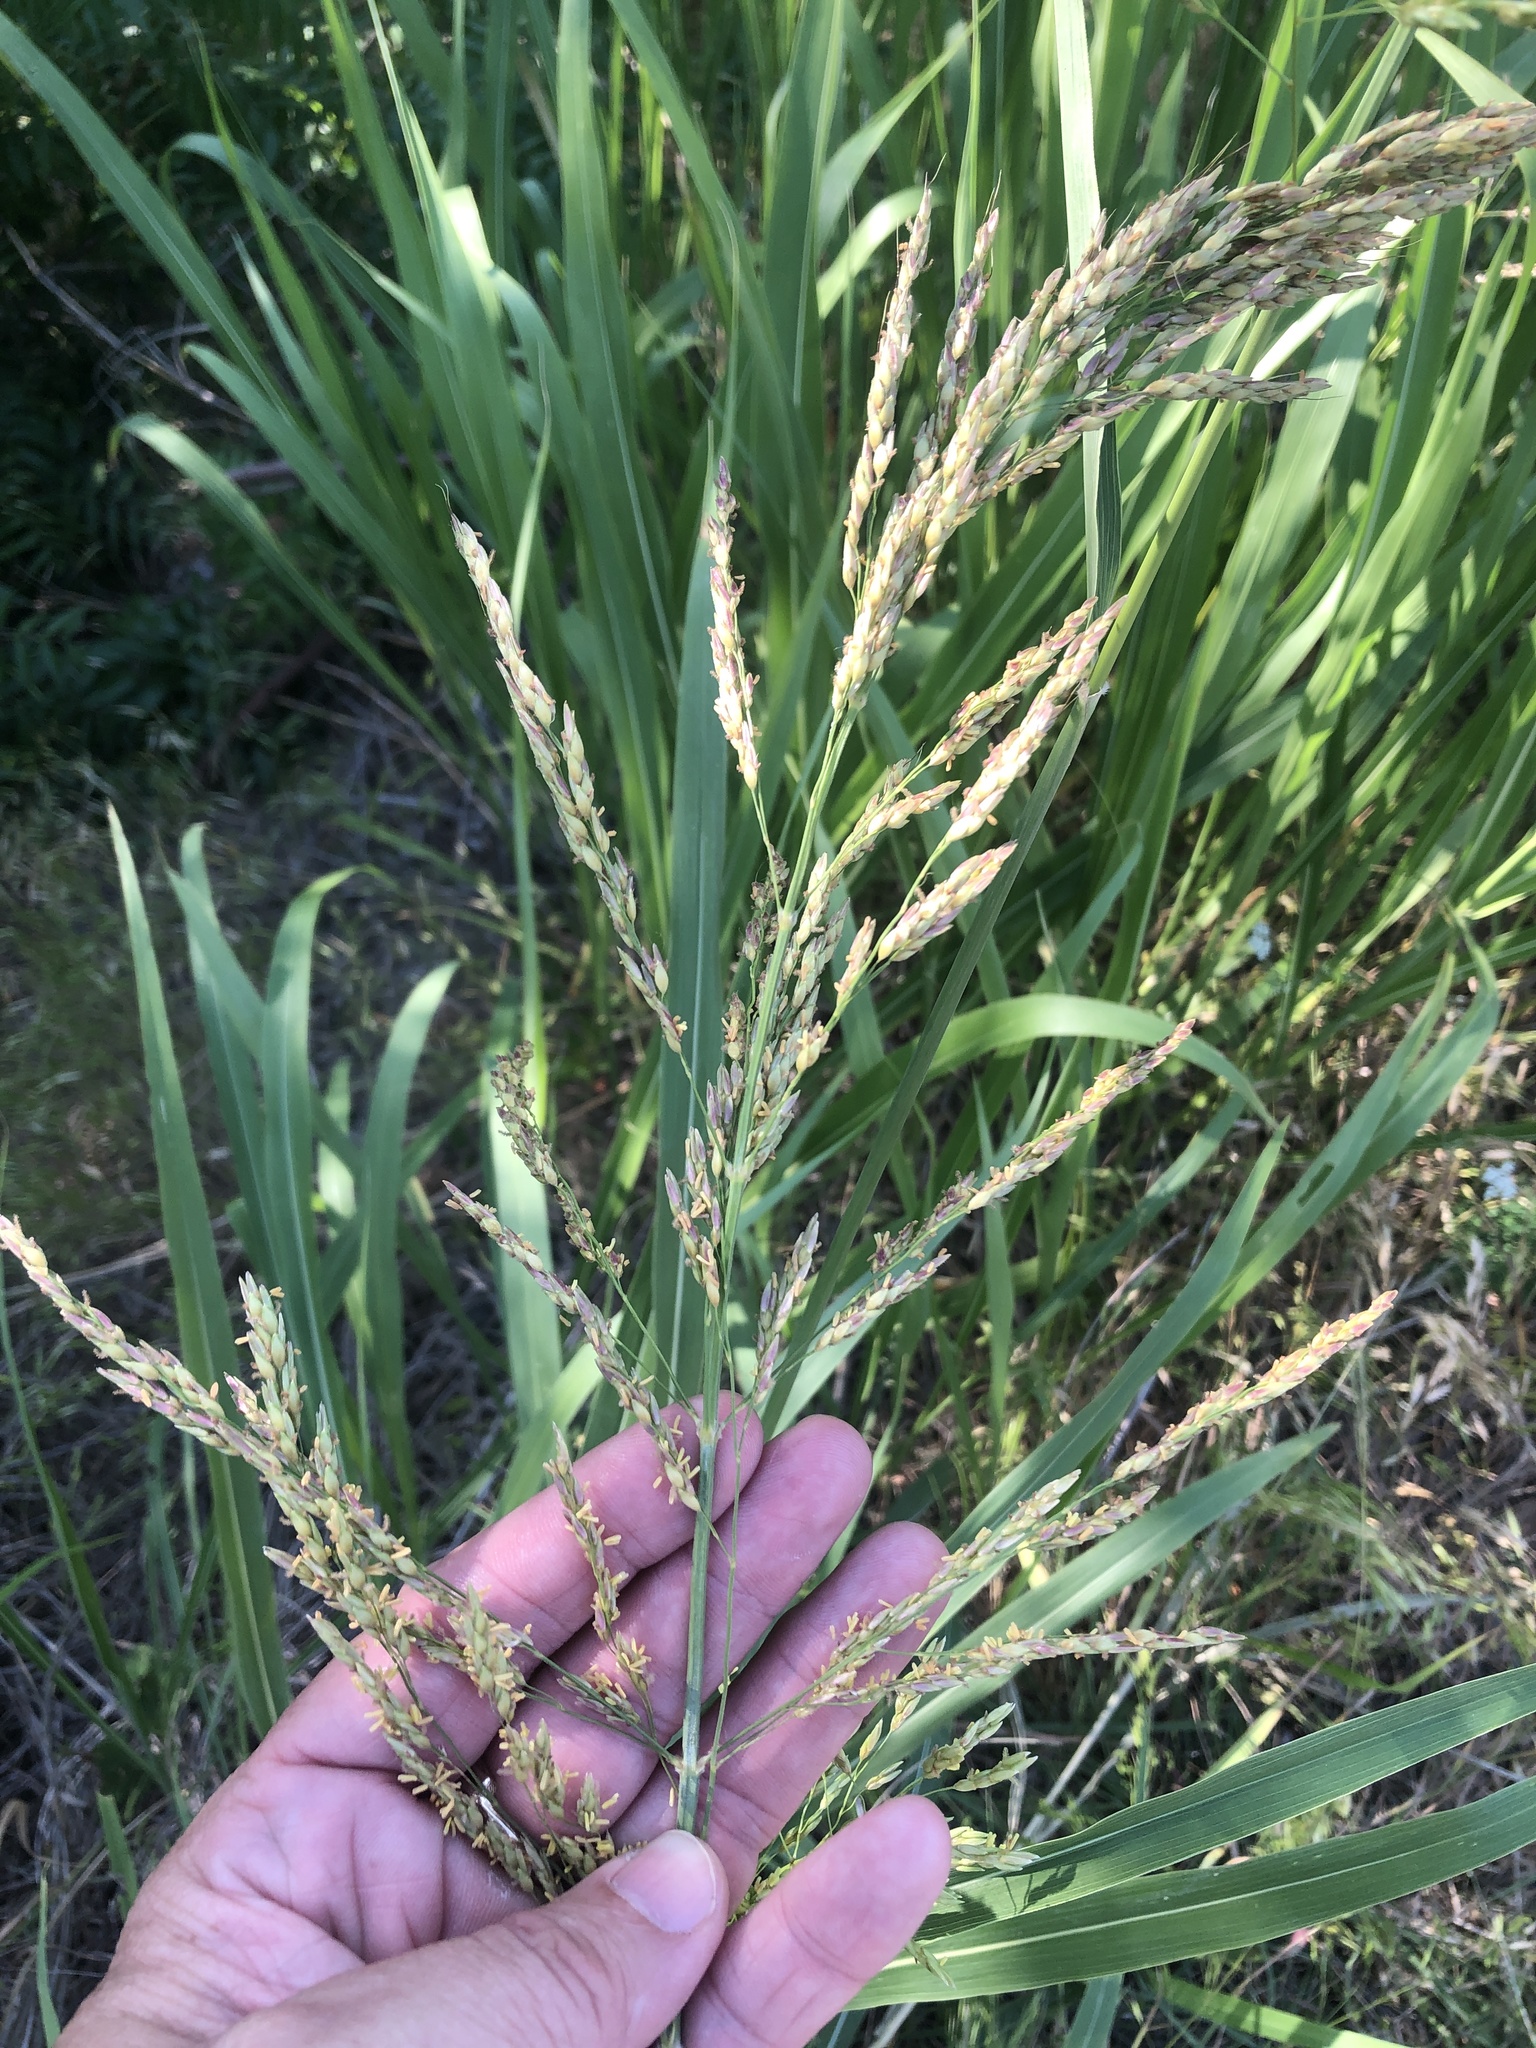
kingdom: Plantae
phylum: Tracheophyta
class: Liliopsida
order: Poales
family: Poaceae
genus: Sorghum
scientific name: Sorghum halepense
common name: Johnson-grass
